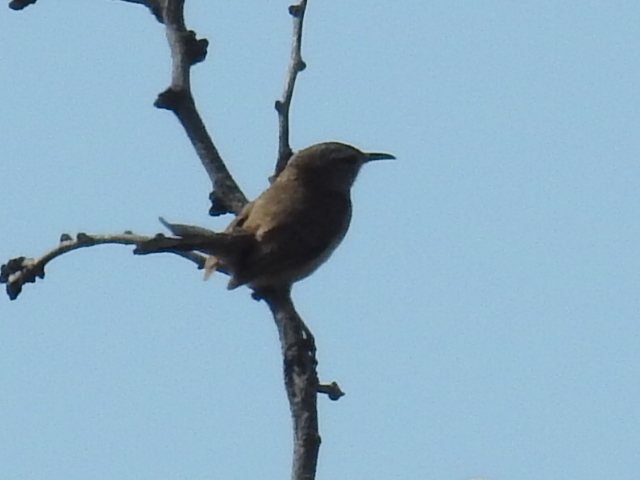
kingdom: Animalia
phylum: Chordata
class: Aves
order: Passeriformes
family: Troglodytidae
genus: Thryomanes
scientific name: Thryomanes bewickii
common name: Bewick's wren
